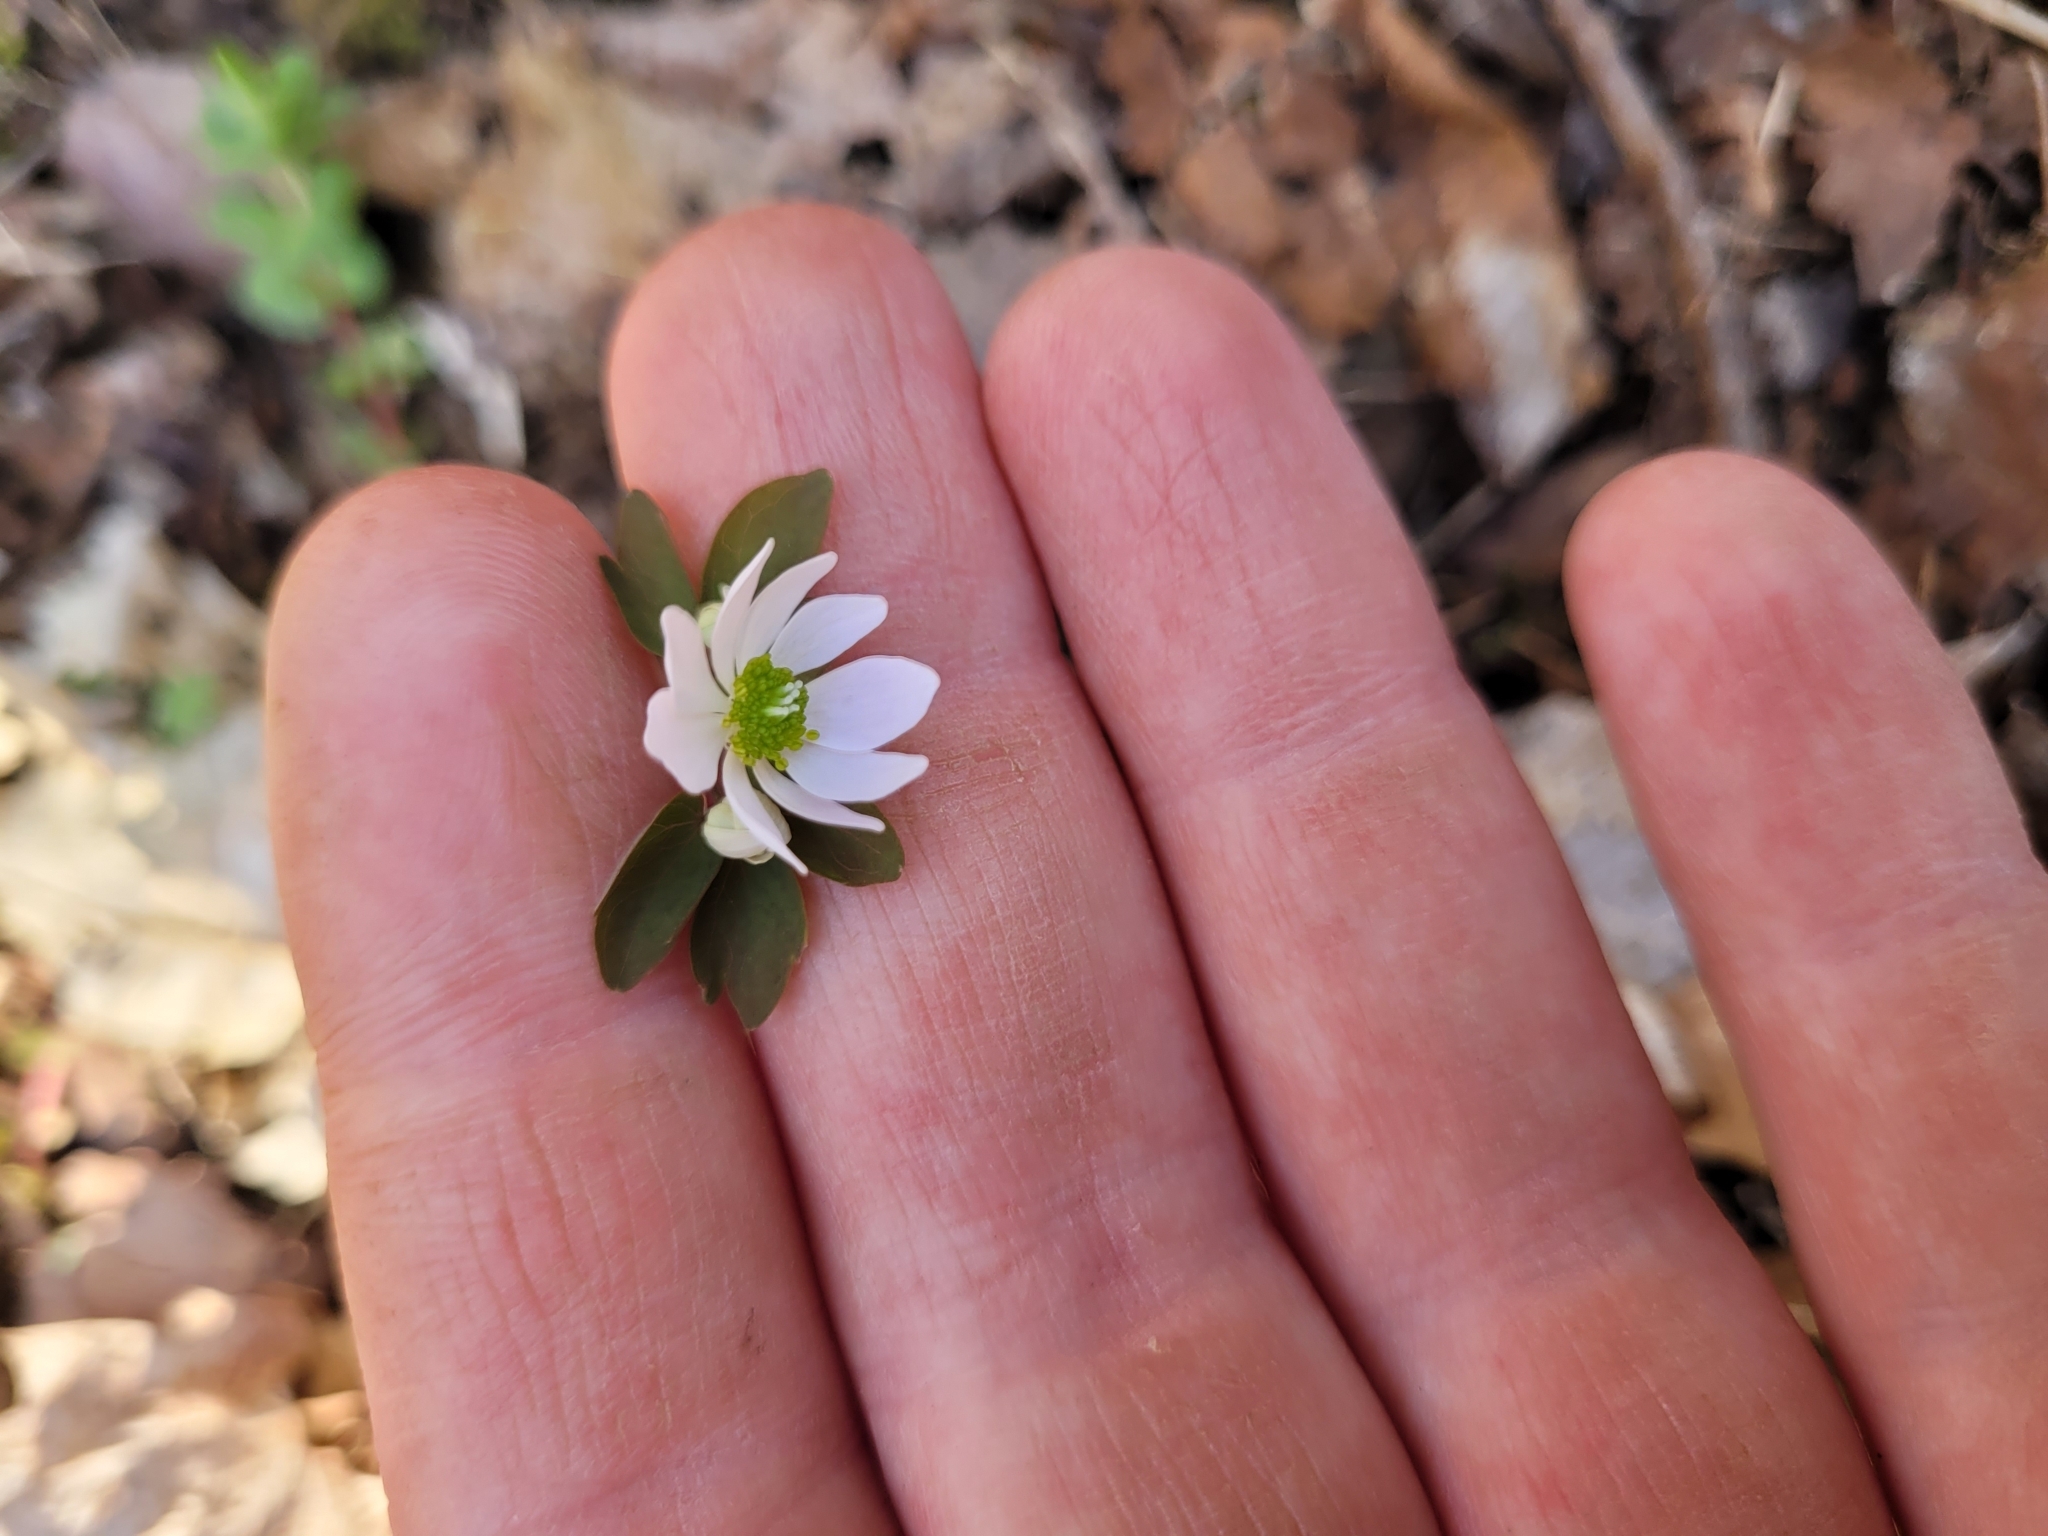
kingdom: Plantae
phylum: Tracheophyta
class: Magnoliopsida
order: Ranunculales
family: Ranunculaceae
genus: Thalictrum
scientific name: Thalictrum thalictroides
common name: Rue-anemone
